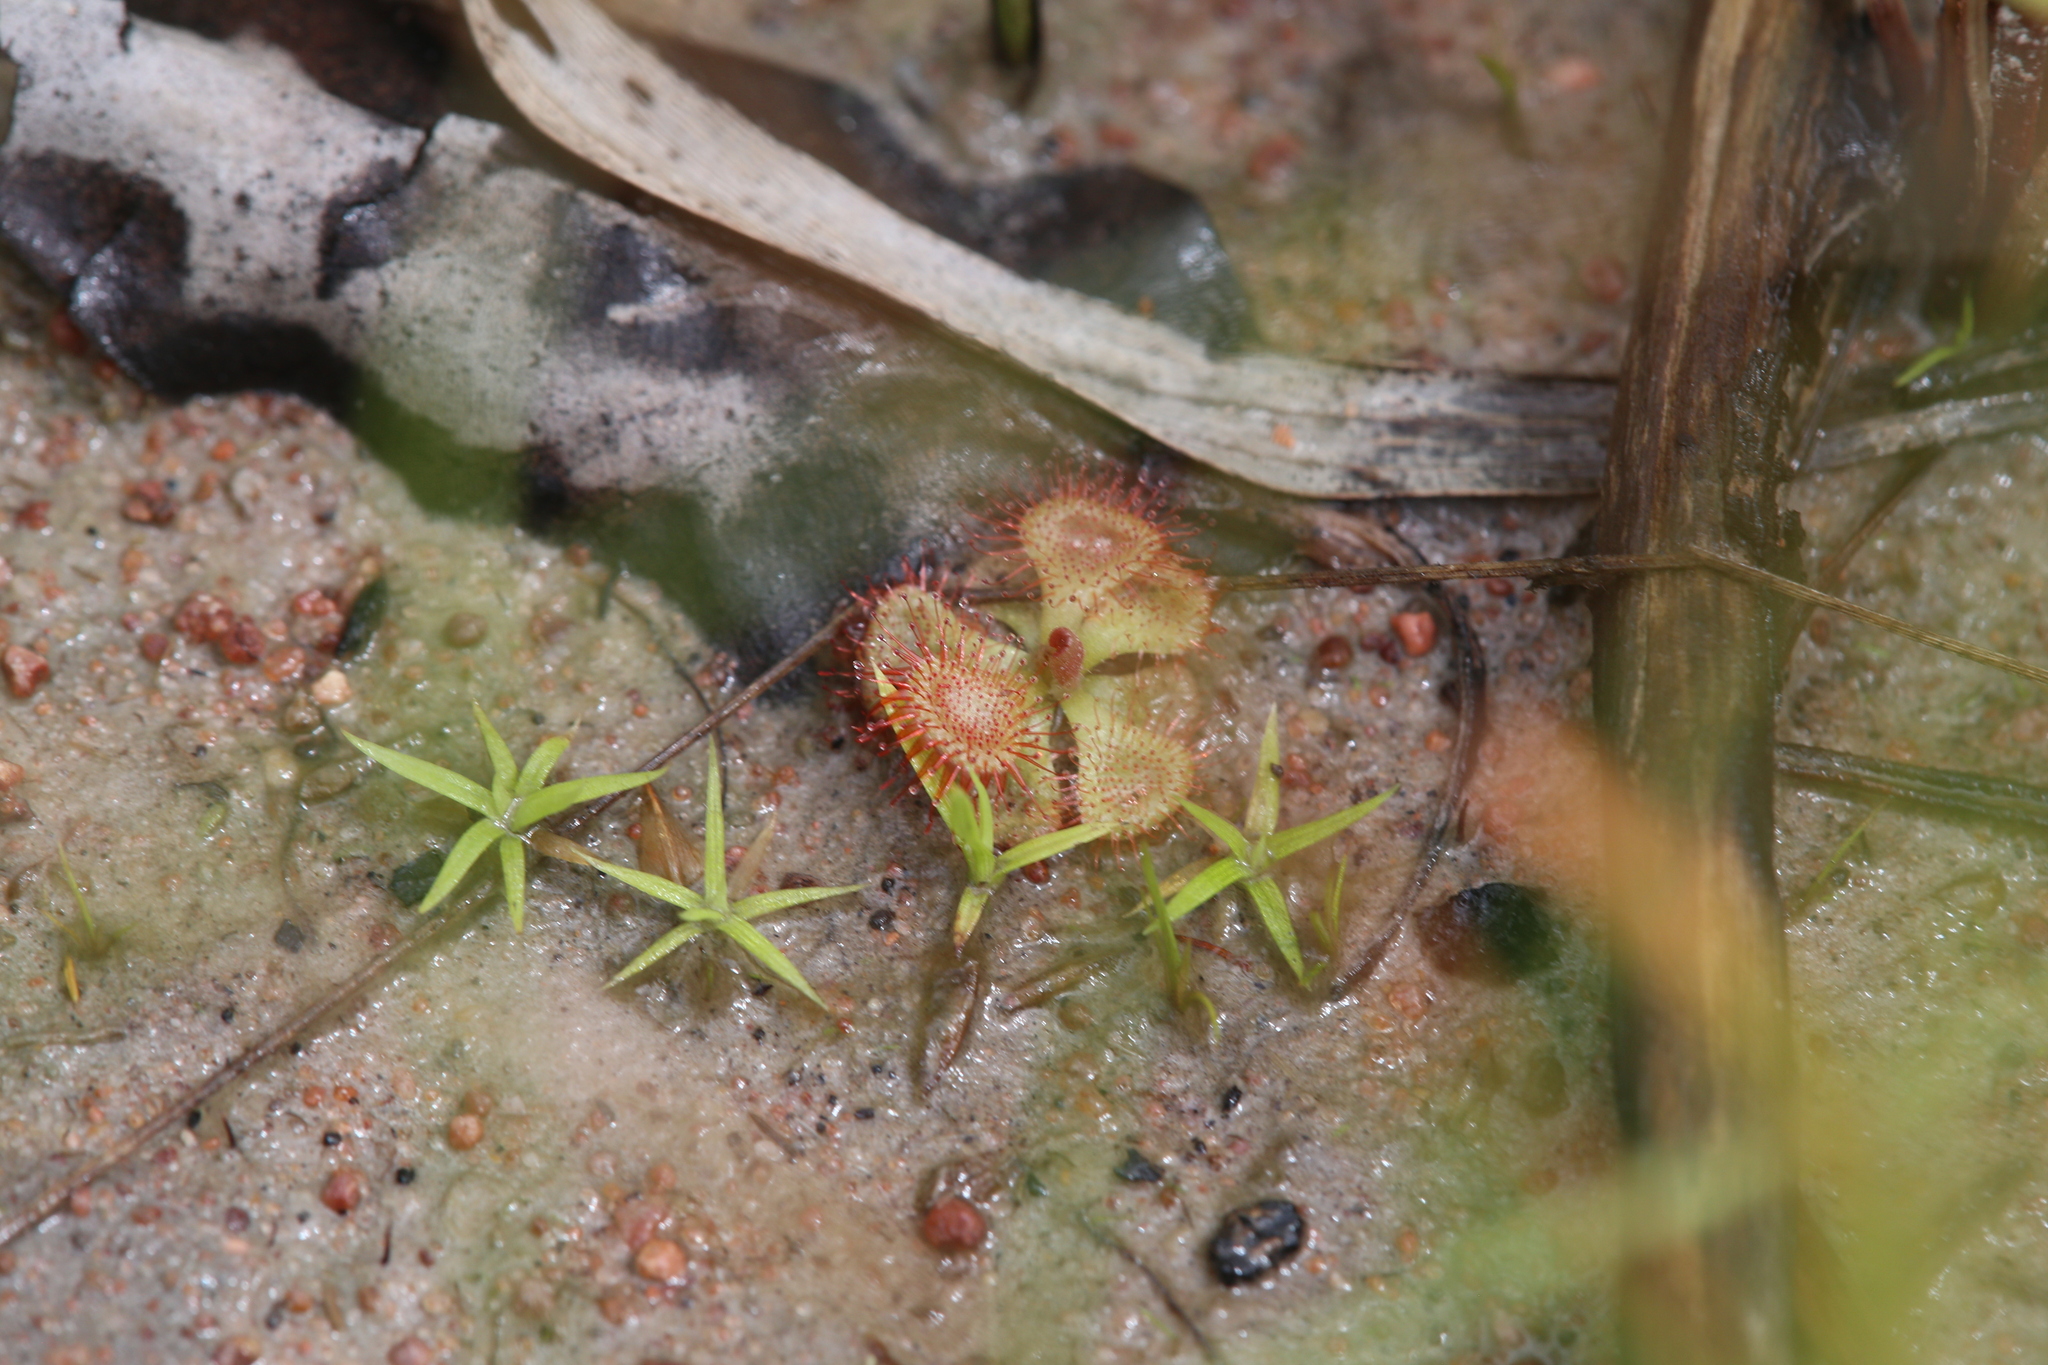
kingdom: Plantae
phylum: Tracheophyta
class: Magnoliopsida
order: Caryophyllales
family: Droseraceae
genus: Drosera
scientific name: Drosera spatulata
